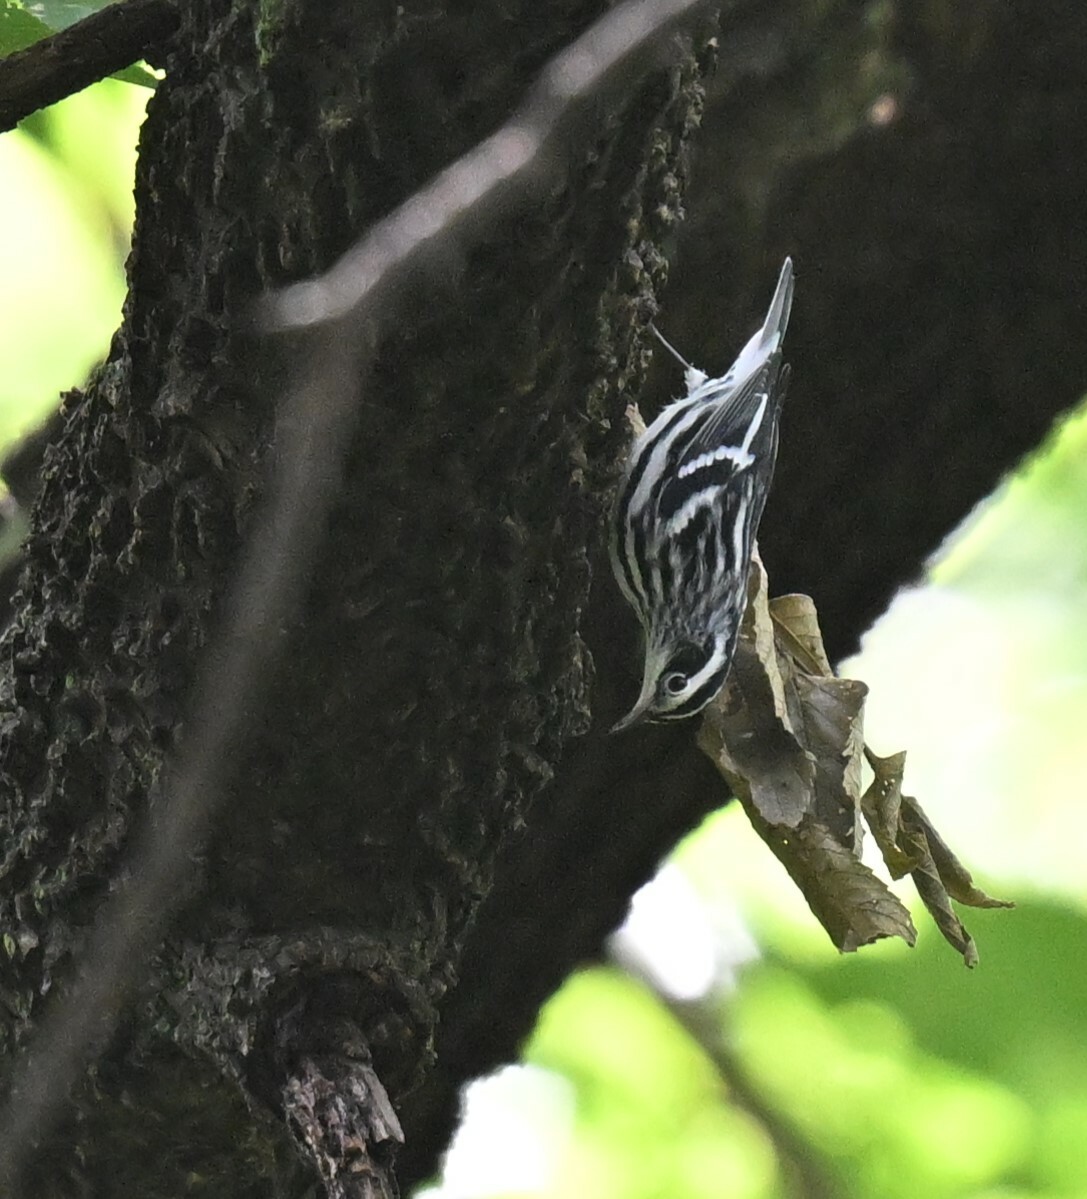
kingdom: Animalia
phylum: Chordata
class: Aves
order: Passeriformes
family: Parulidae
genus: Mniotilta
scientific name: Mniotilta varia
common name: Black-and-white warbler
